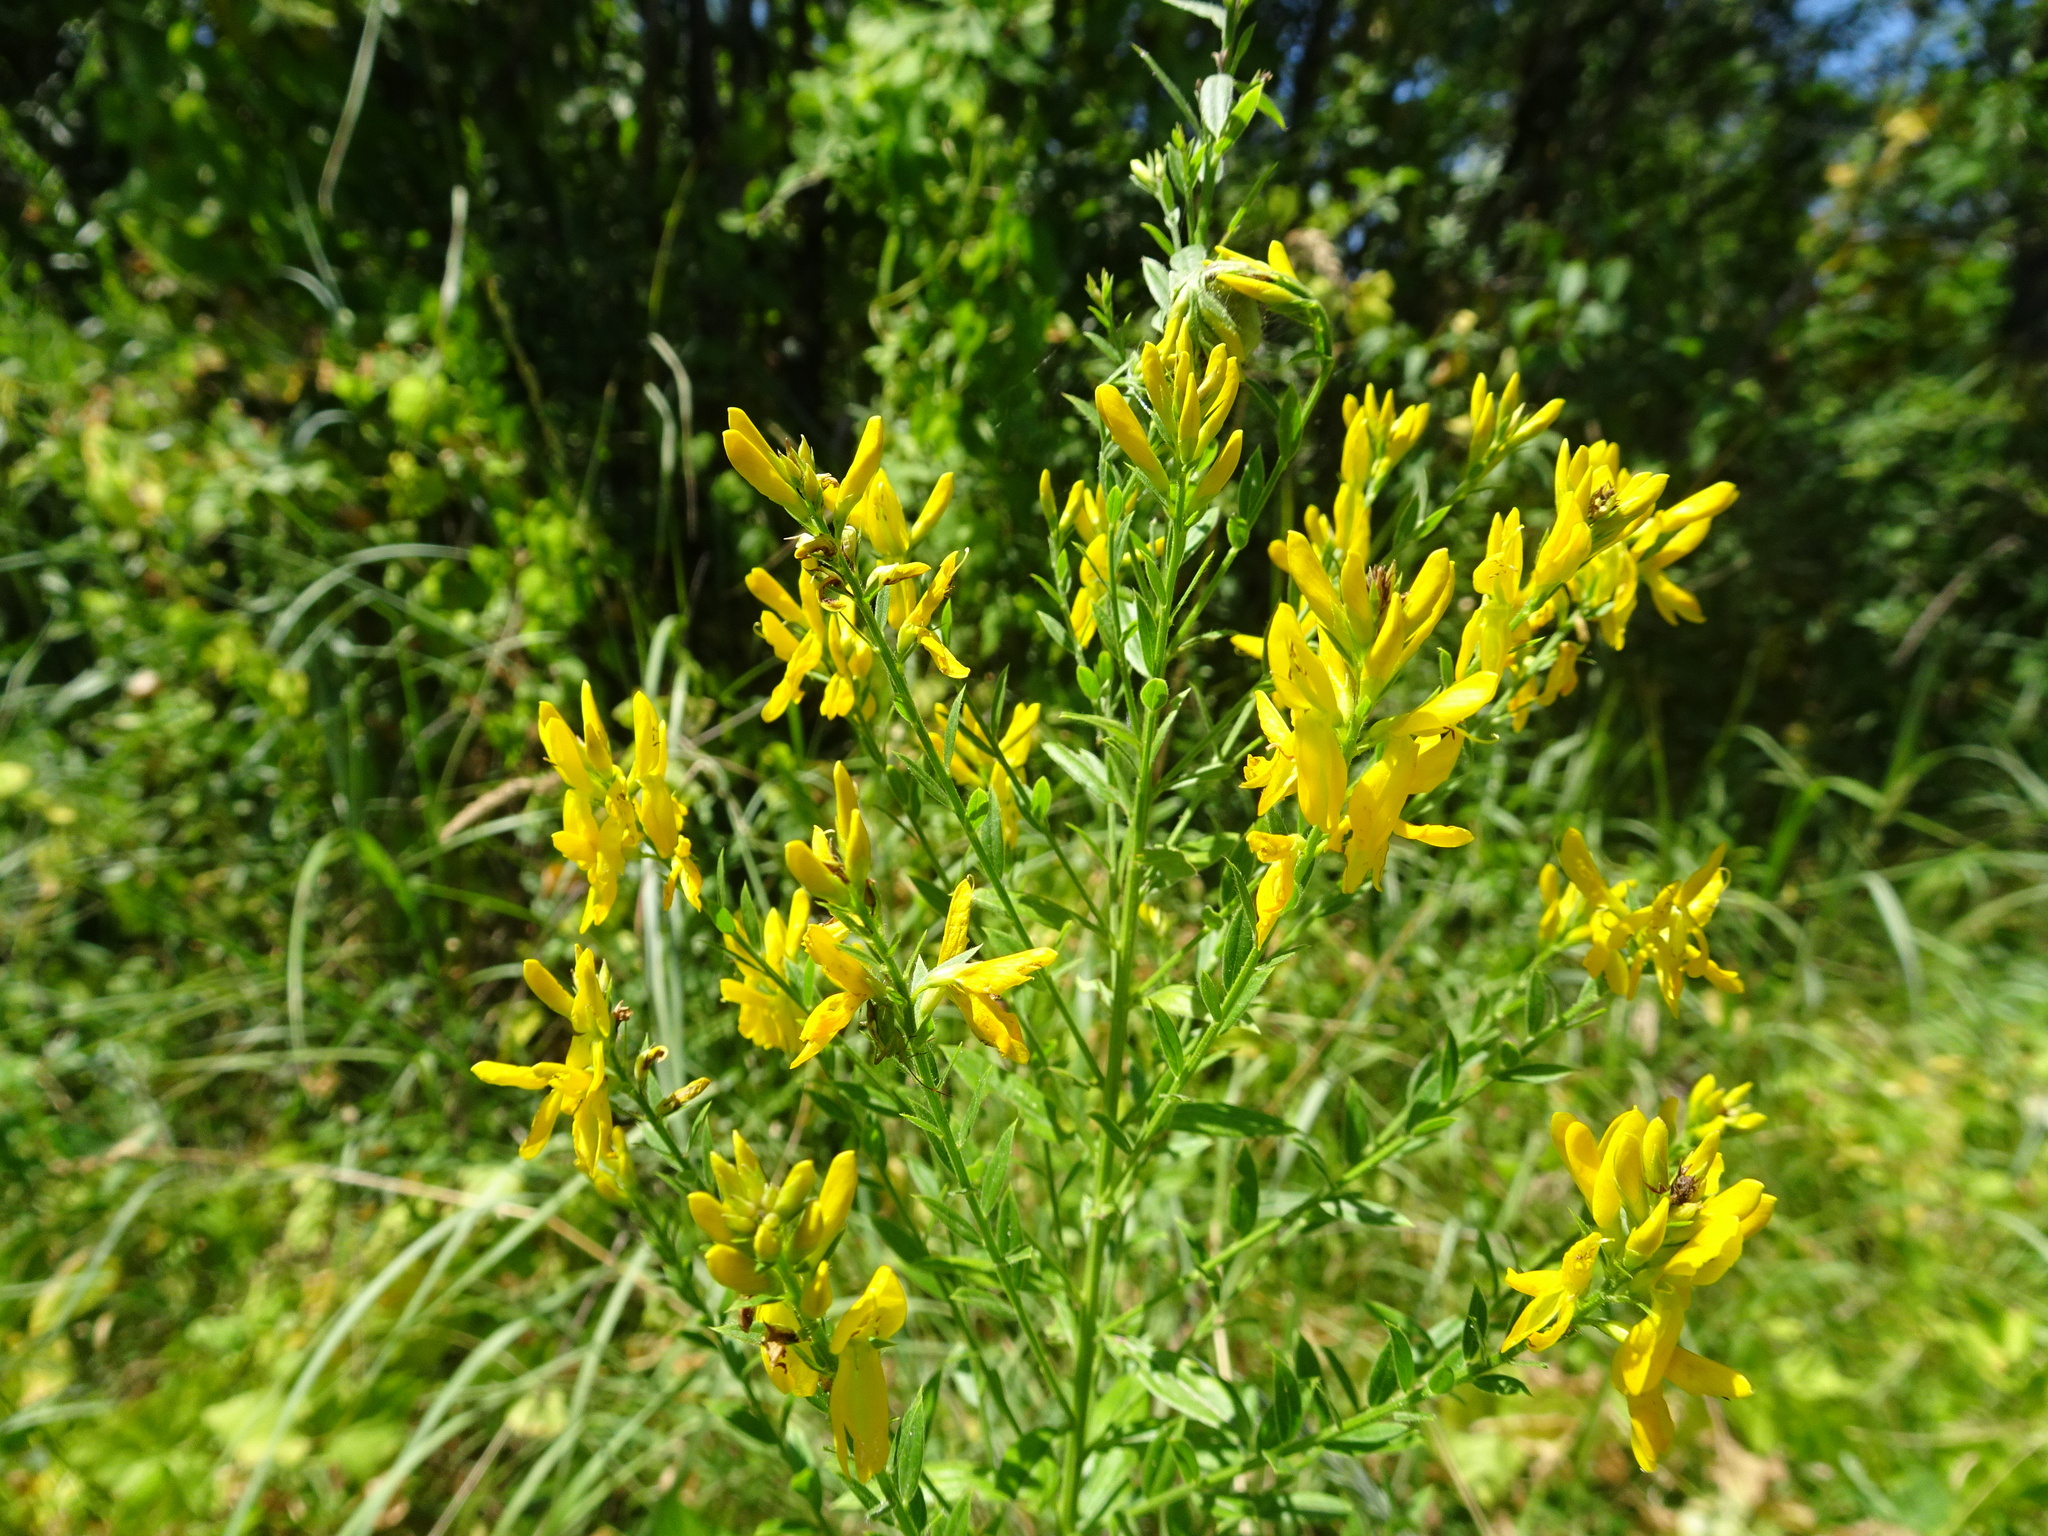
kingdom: Plantae
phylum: Tracheophyta
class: Magnoliopsida
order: Fabales
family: Fabaceae
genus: Genista
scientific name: Genista tinctoria
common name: Dyer's greenweed
